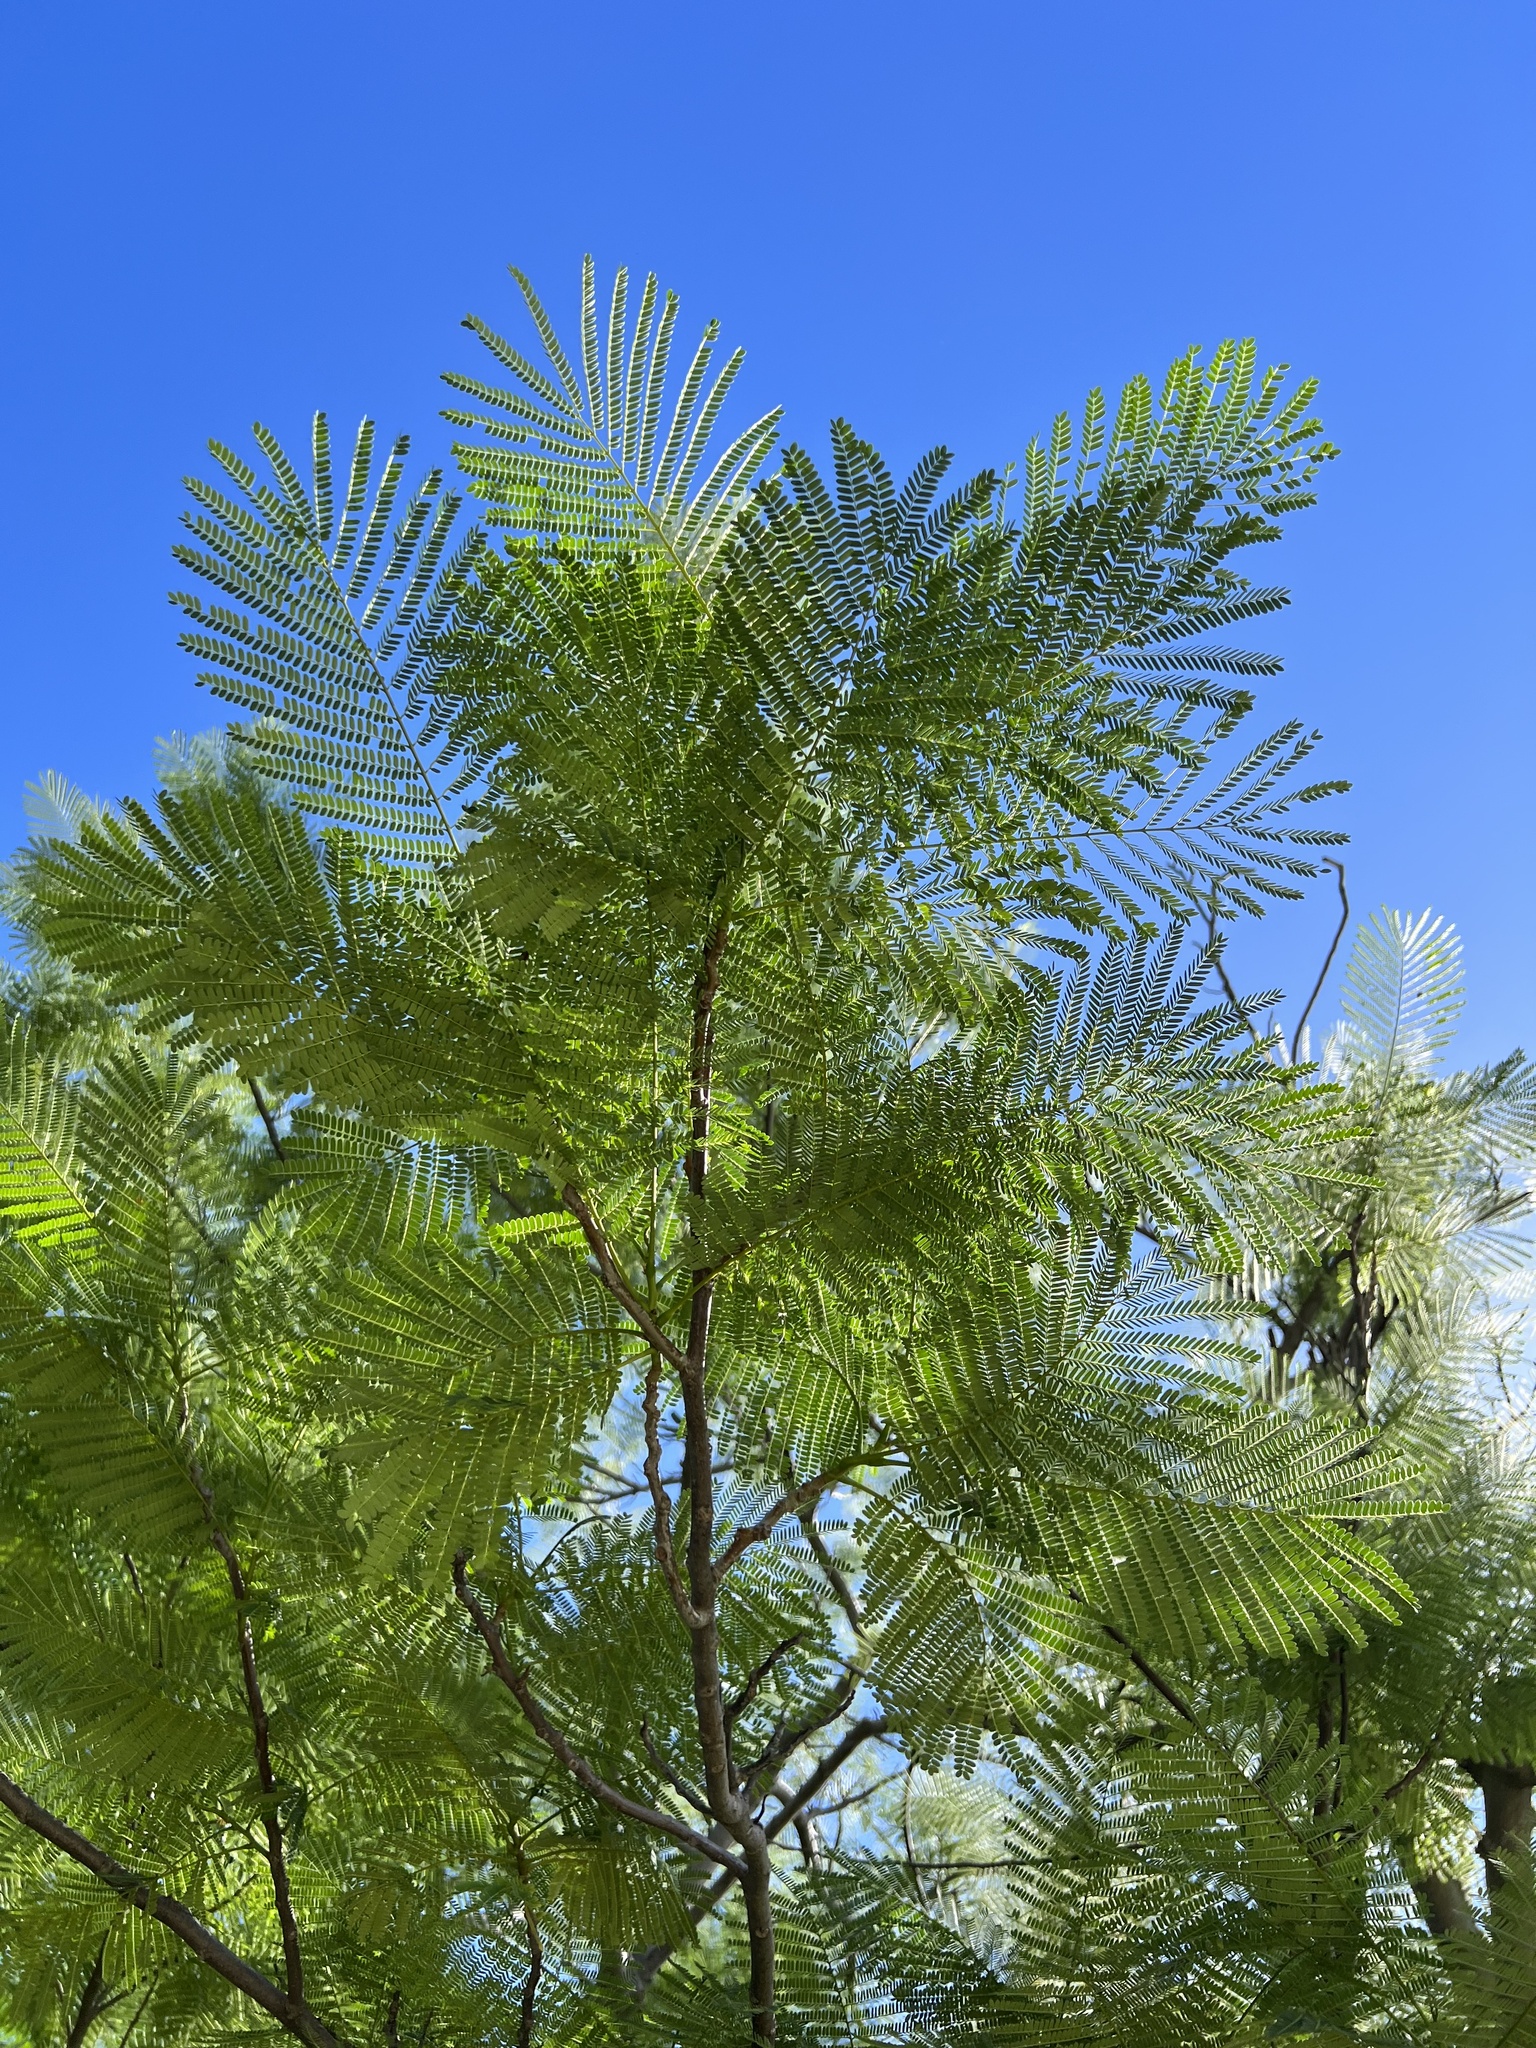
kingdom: Plantae
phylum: Tracheophyta
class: Magnoliopsida
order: Fabales
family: Fabaceae
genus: Delonix
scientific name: Delonix regia
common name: Royal poinciana
